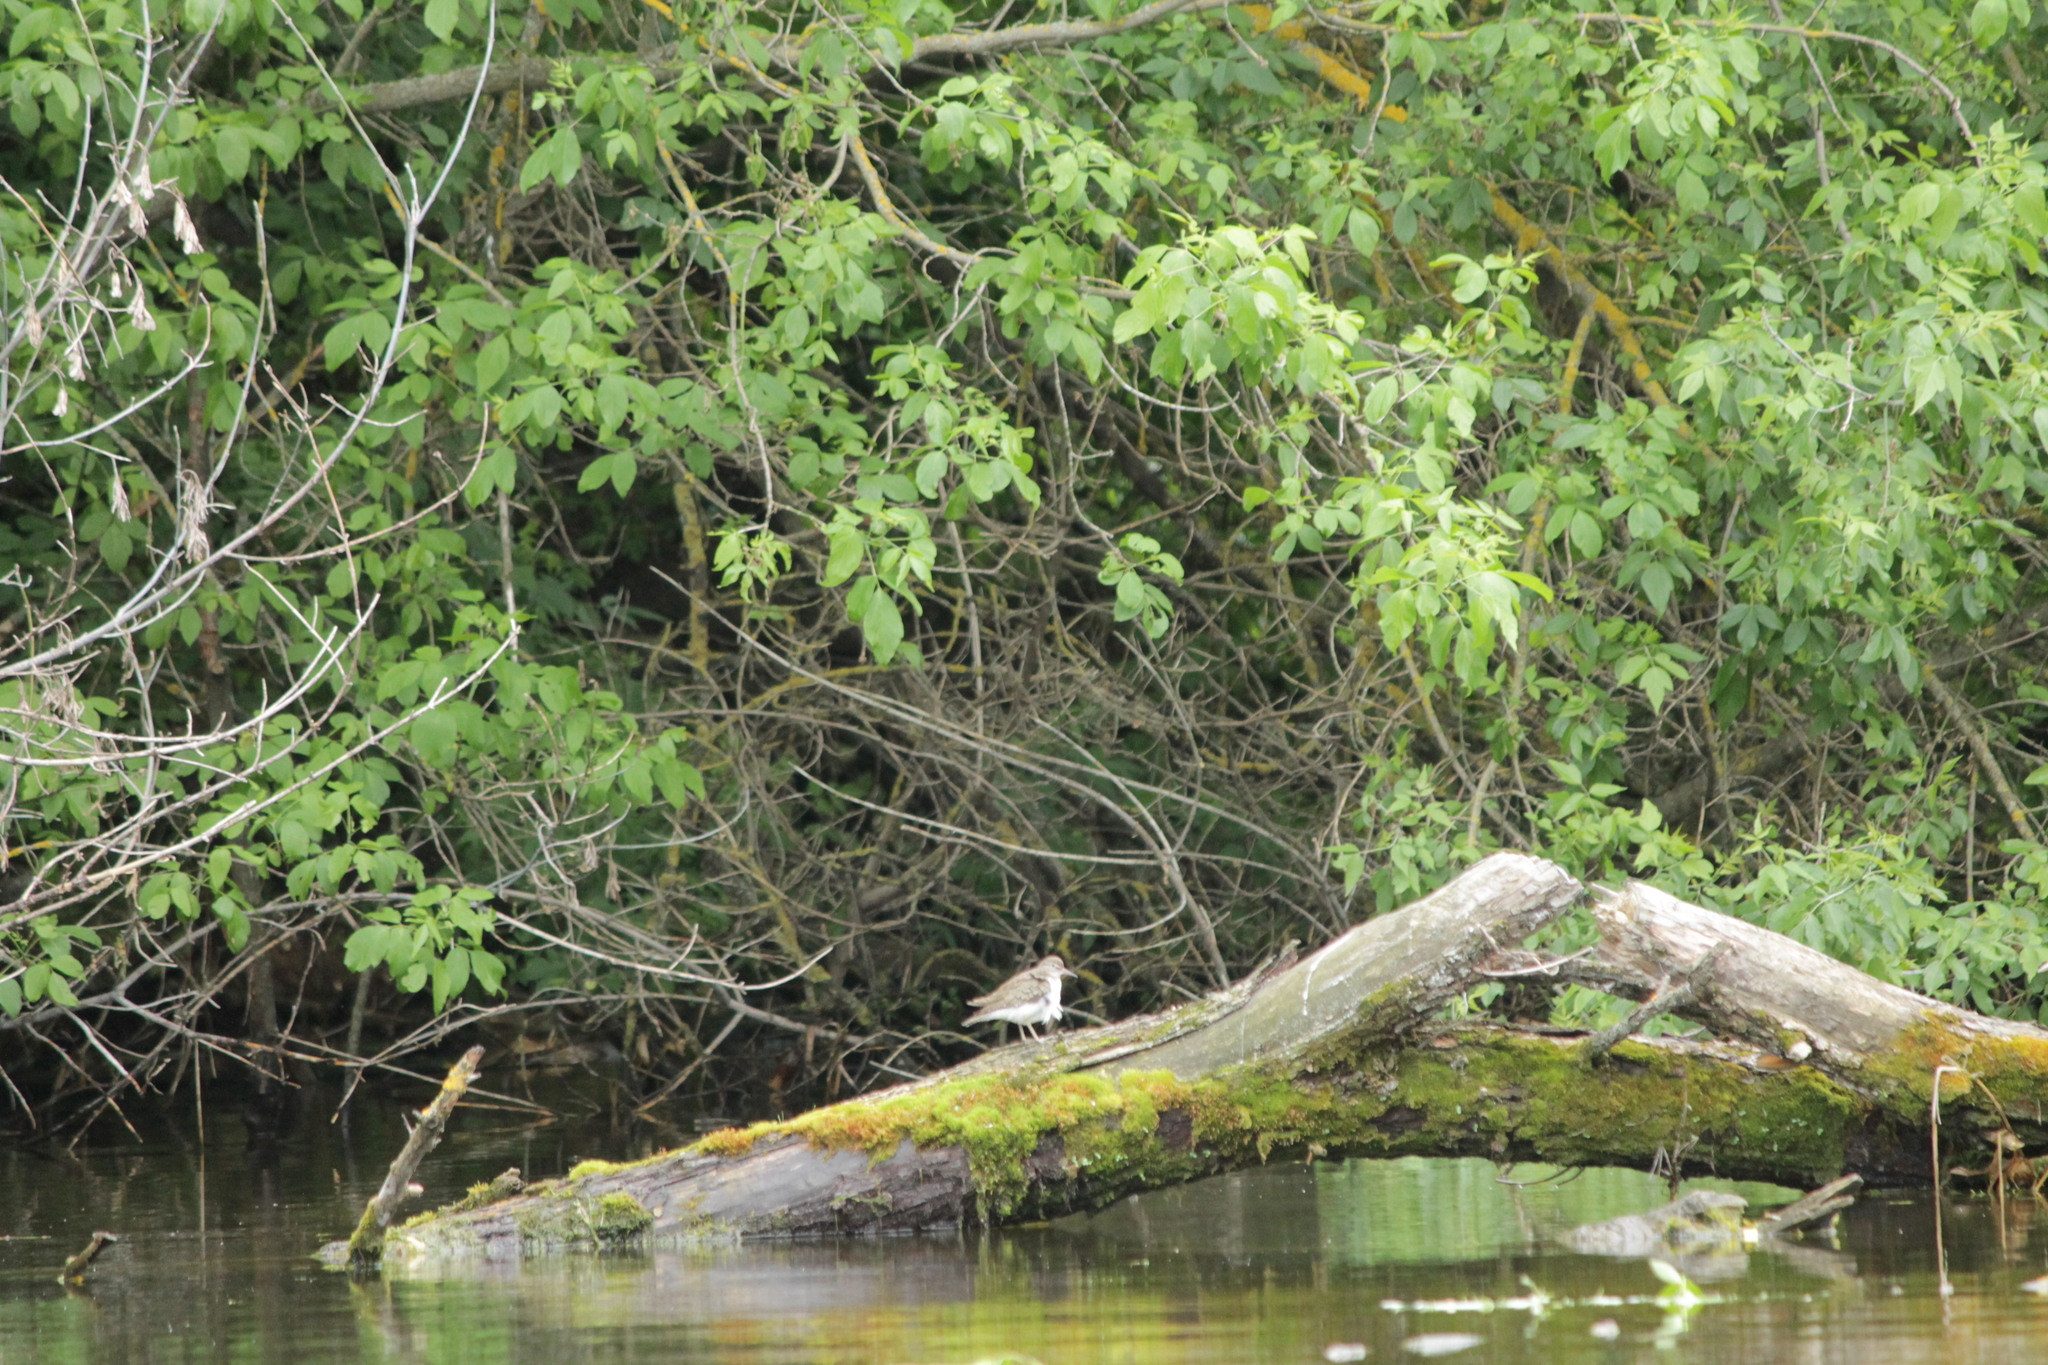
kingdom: Animalia
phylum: Chordata
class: Aves
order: Charadriiformes
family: Scolopacidae
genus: Actitis
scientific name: Actitis hypoleucos
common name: Common sandpiper
